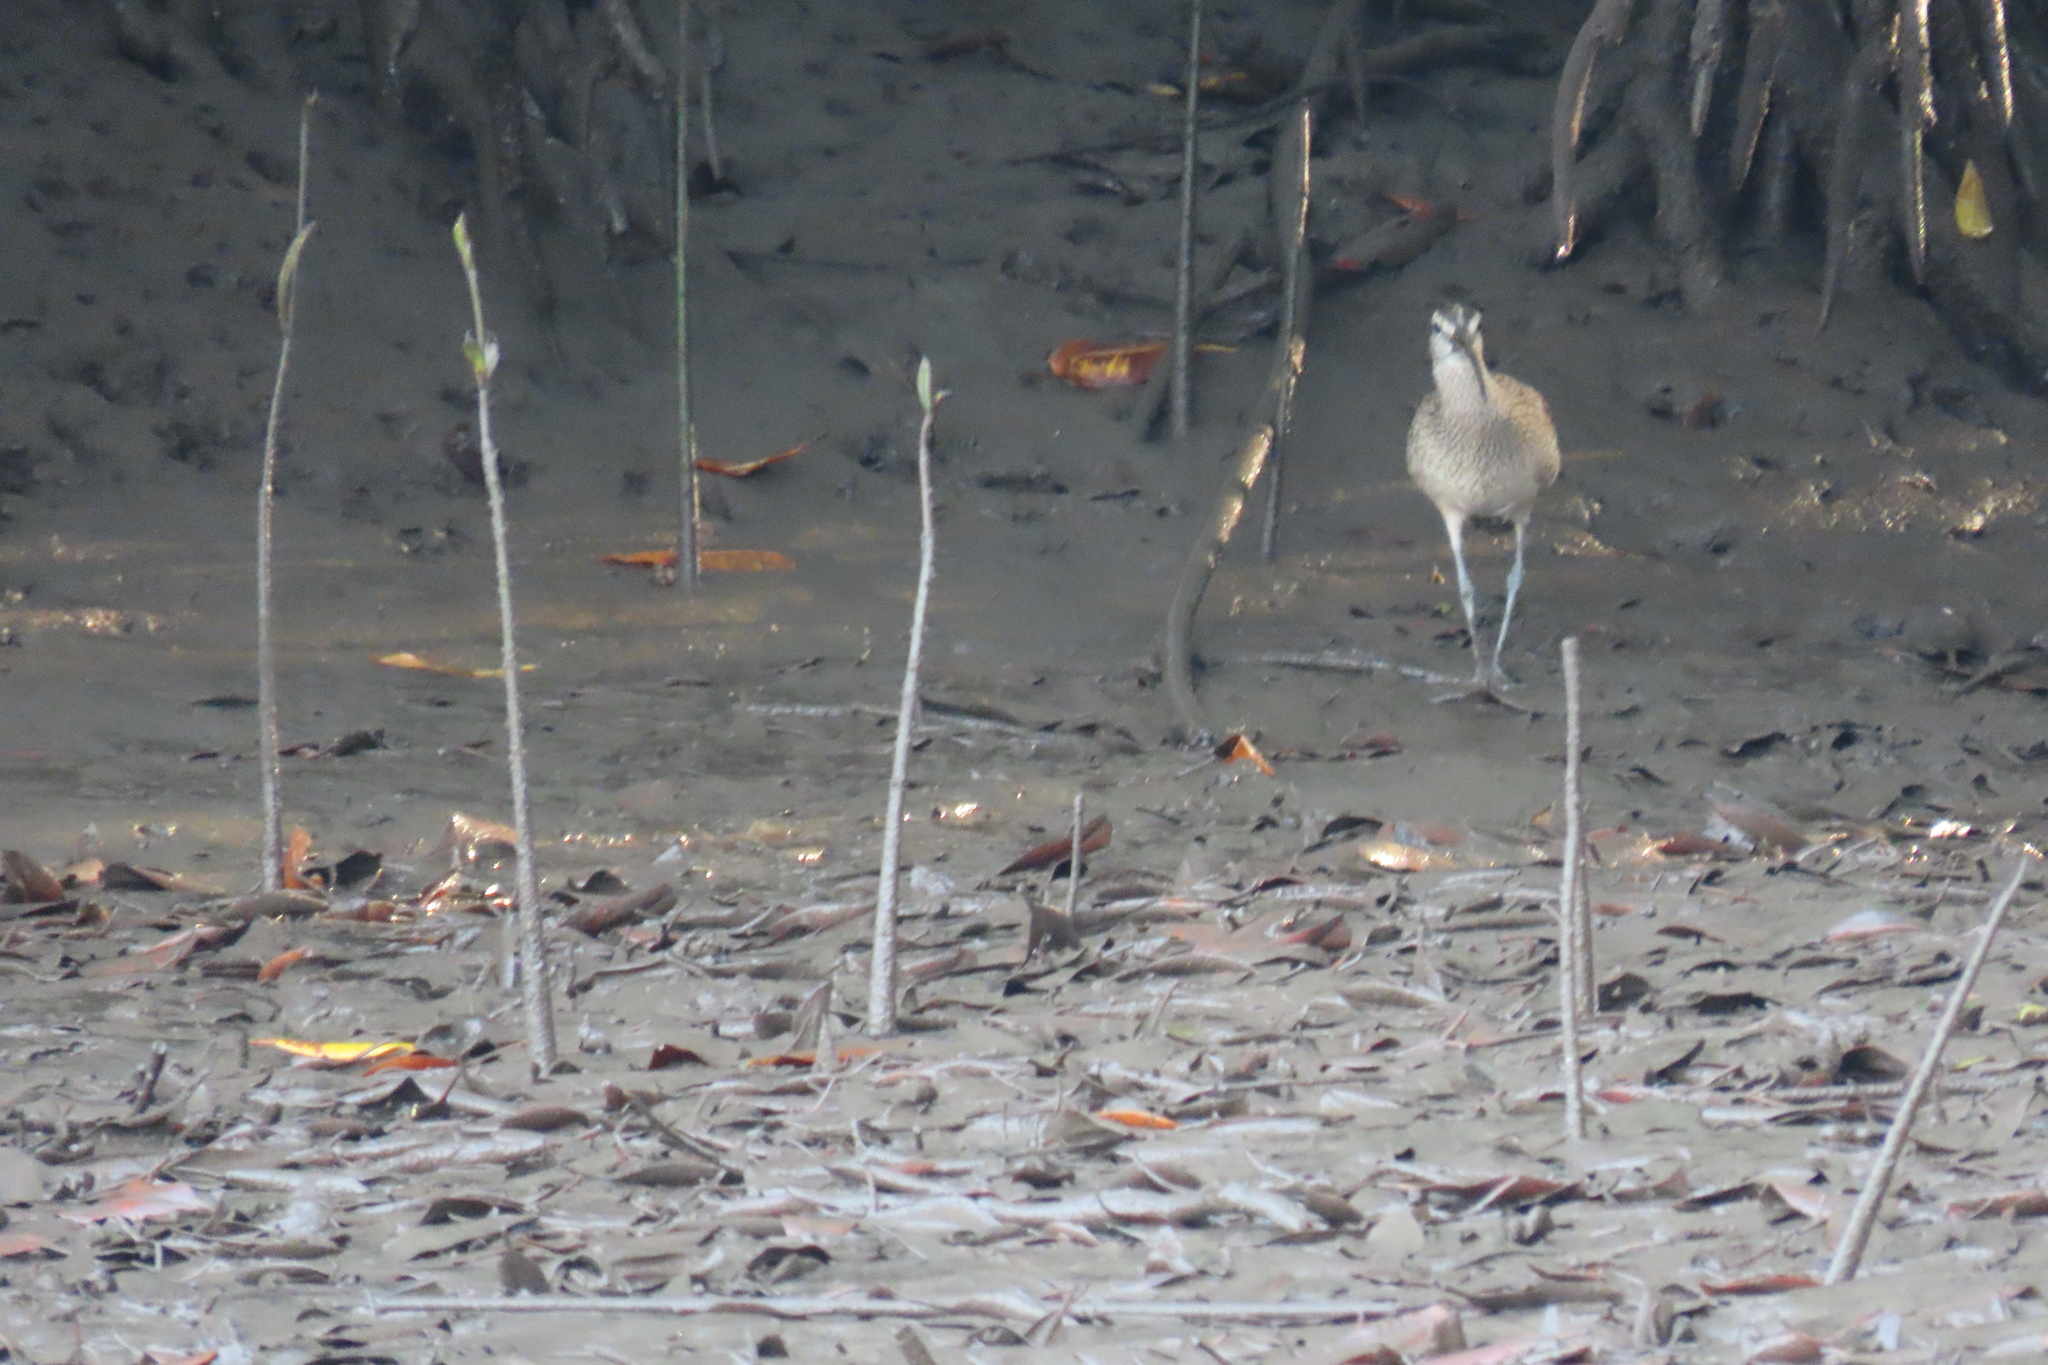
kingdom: Animalia
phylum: Chordata
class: Aves
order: Charadriiformes
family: Scolopacidae
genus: Numenius
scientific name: Numenius phaeopus
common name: Whimbrel
